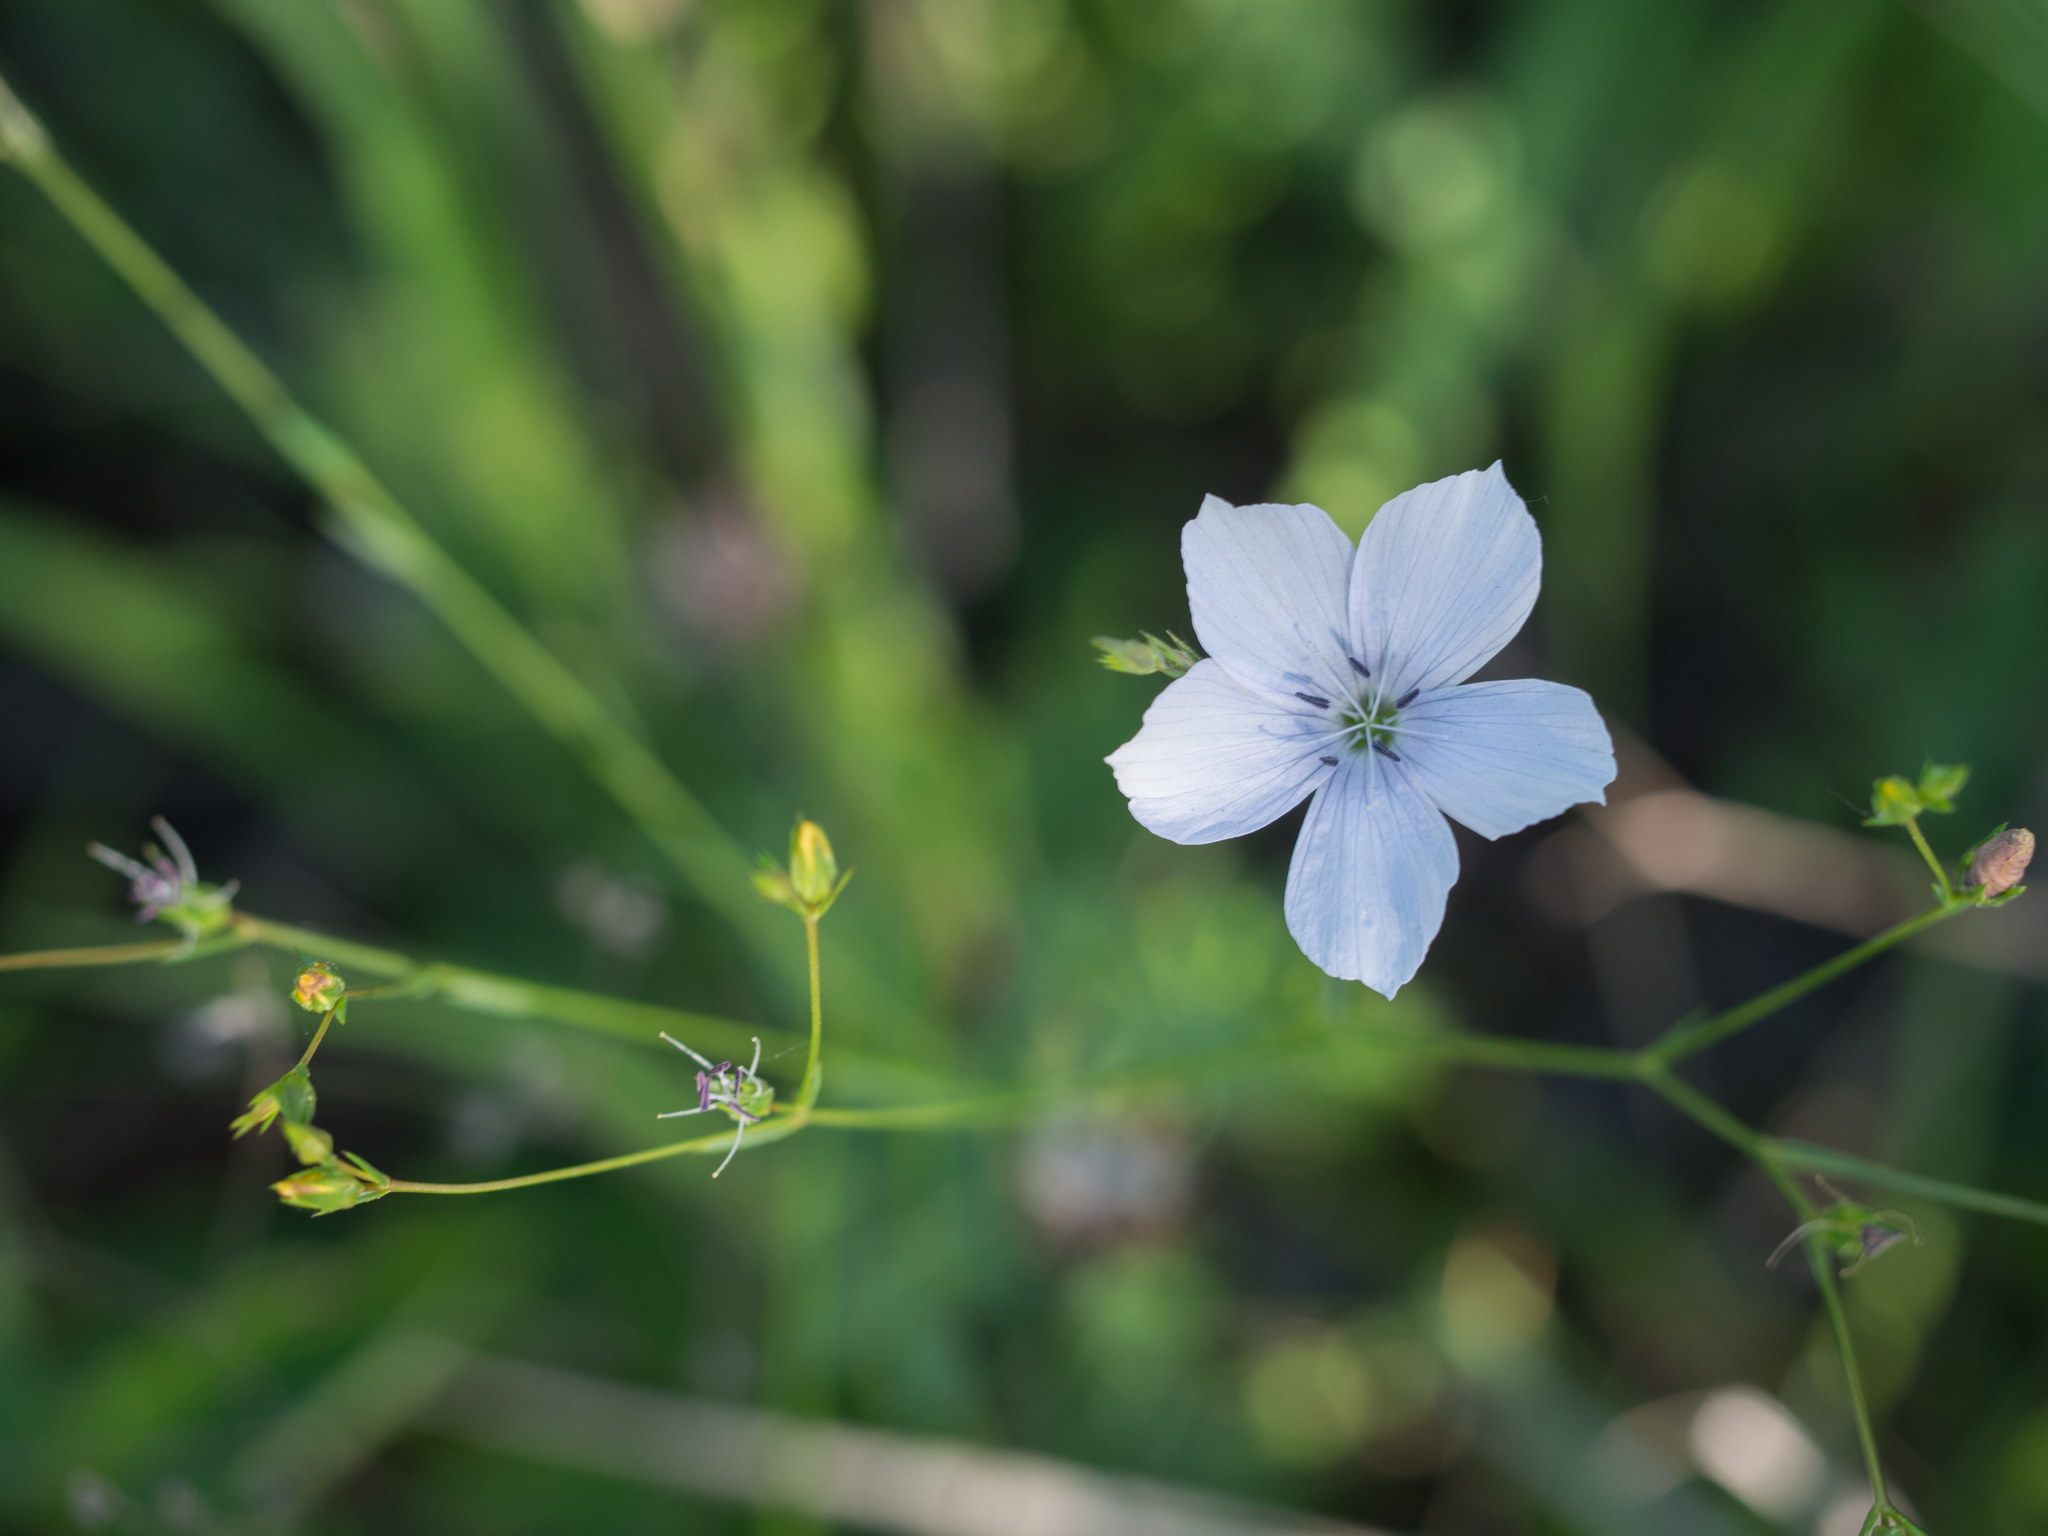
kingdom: Plantae
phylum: Tracheophyta
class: Magnoliopsida
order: Malpighiales
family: Linaceae
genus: Linum
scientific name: Linum tenuifolium
